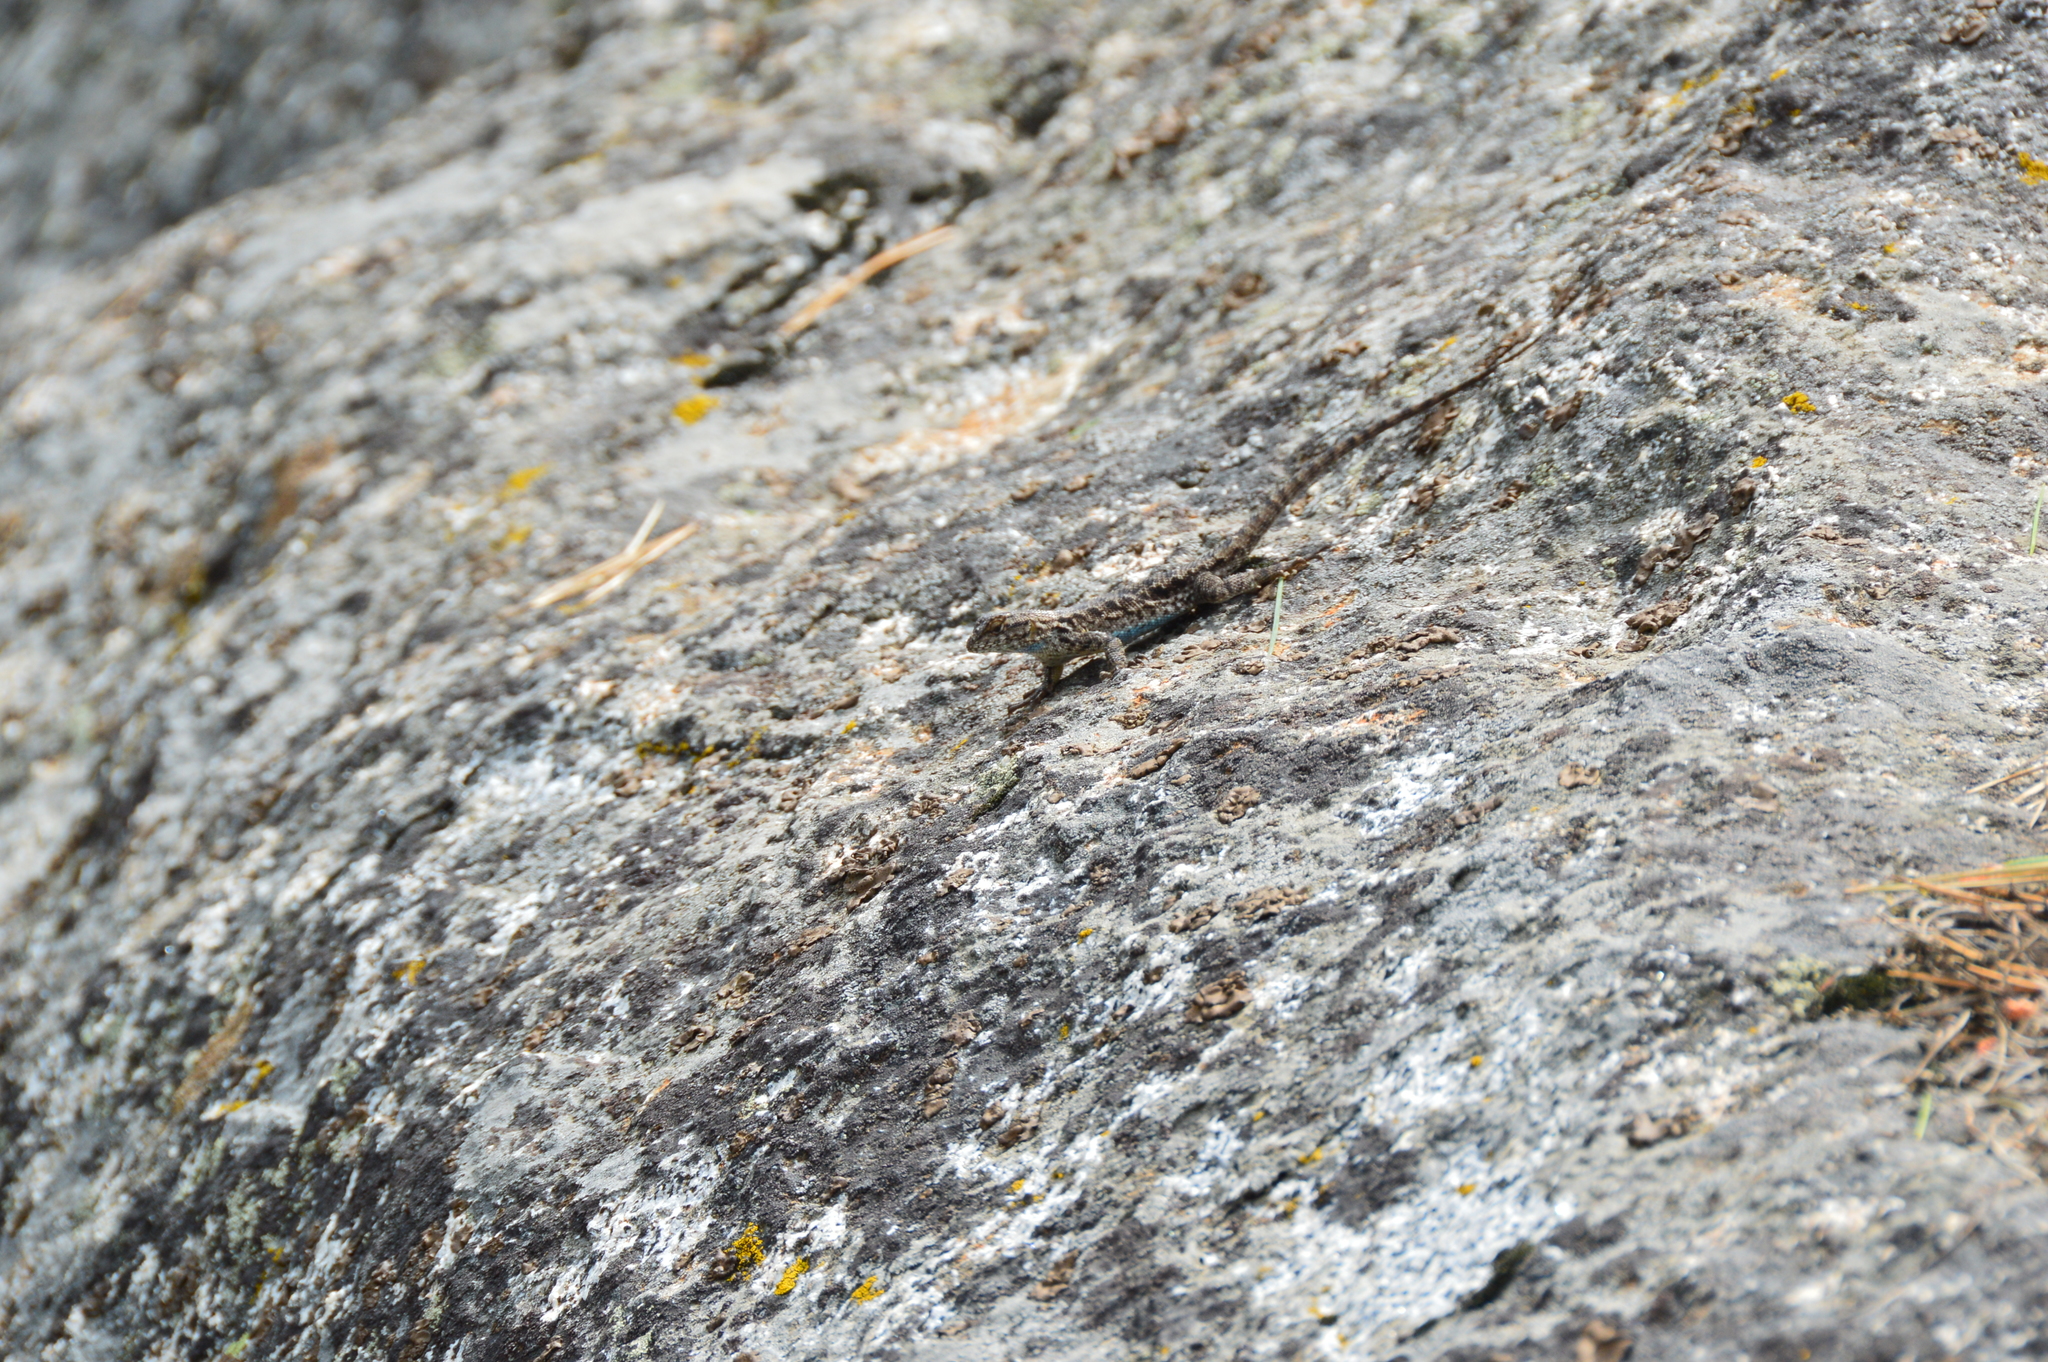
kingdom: Animalia
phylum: Chordata
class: Squamata
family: Phrynosomatidae
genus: Sceloporus
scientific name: Sceloporus occidentalis
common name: Western fence lizard
